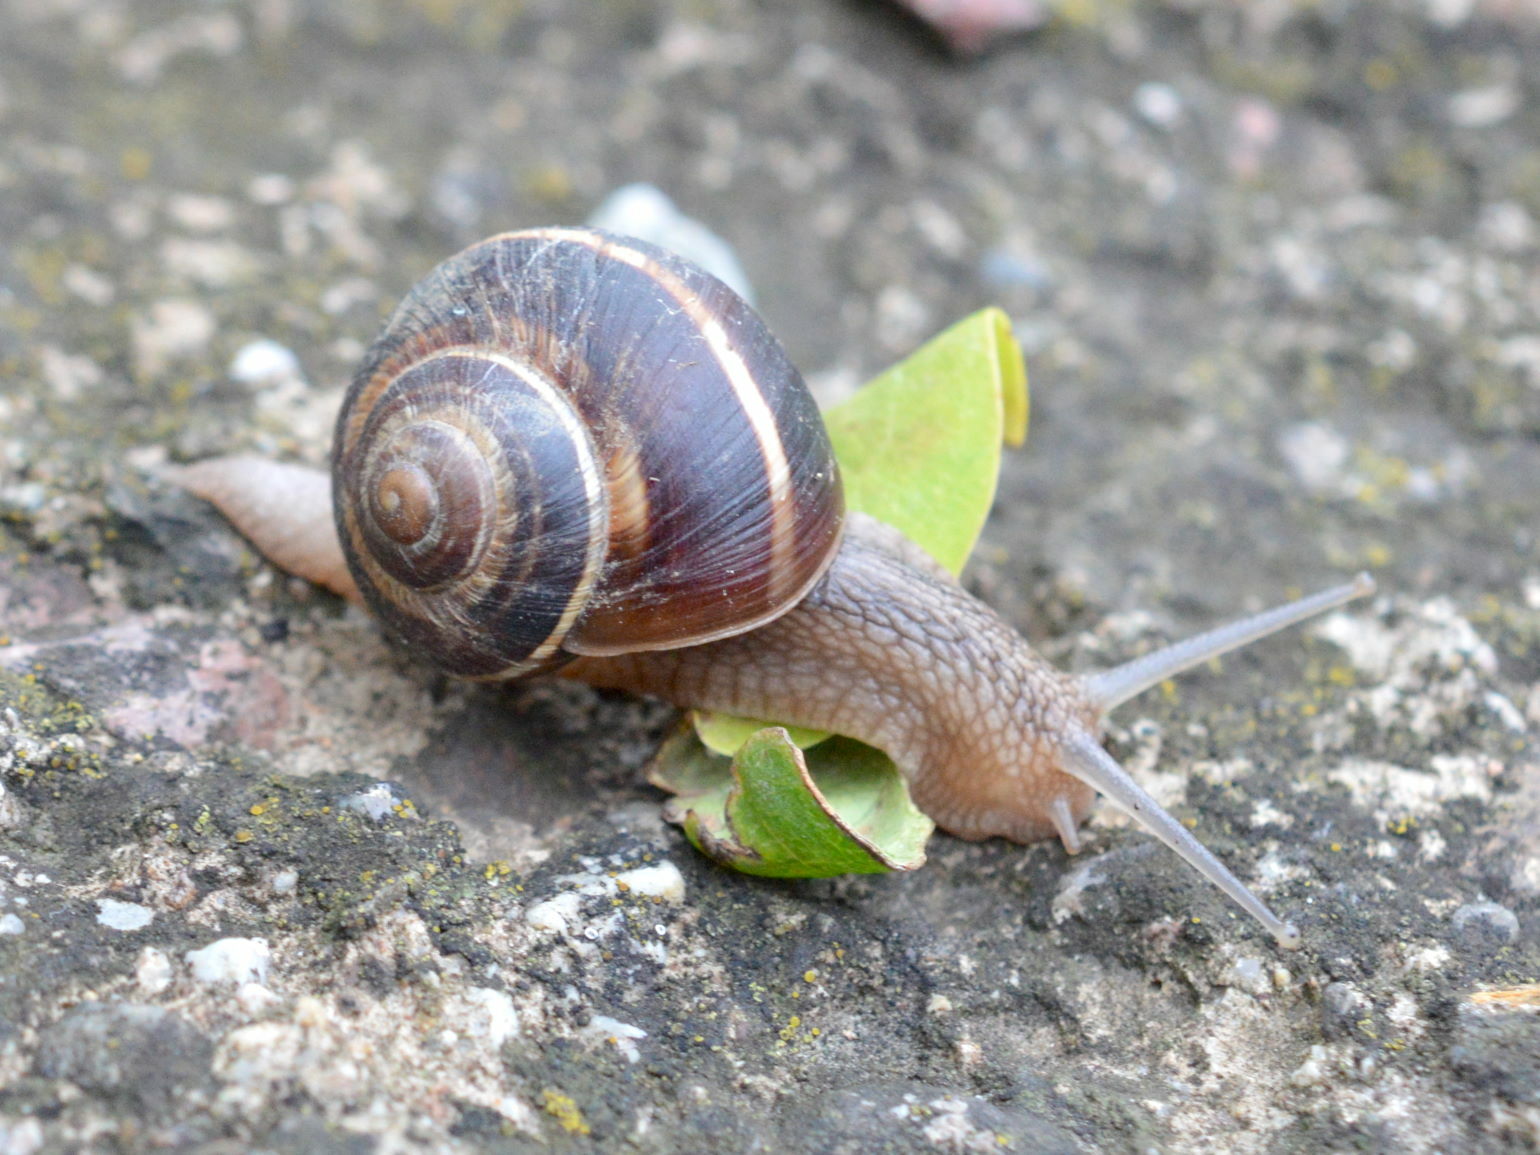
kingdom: Animalia
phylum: Mollusca
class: Gastropoda
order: Stylommatophora
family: Helicidae
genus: Helix
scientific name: Helix lucorum
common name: Turkish snail
